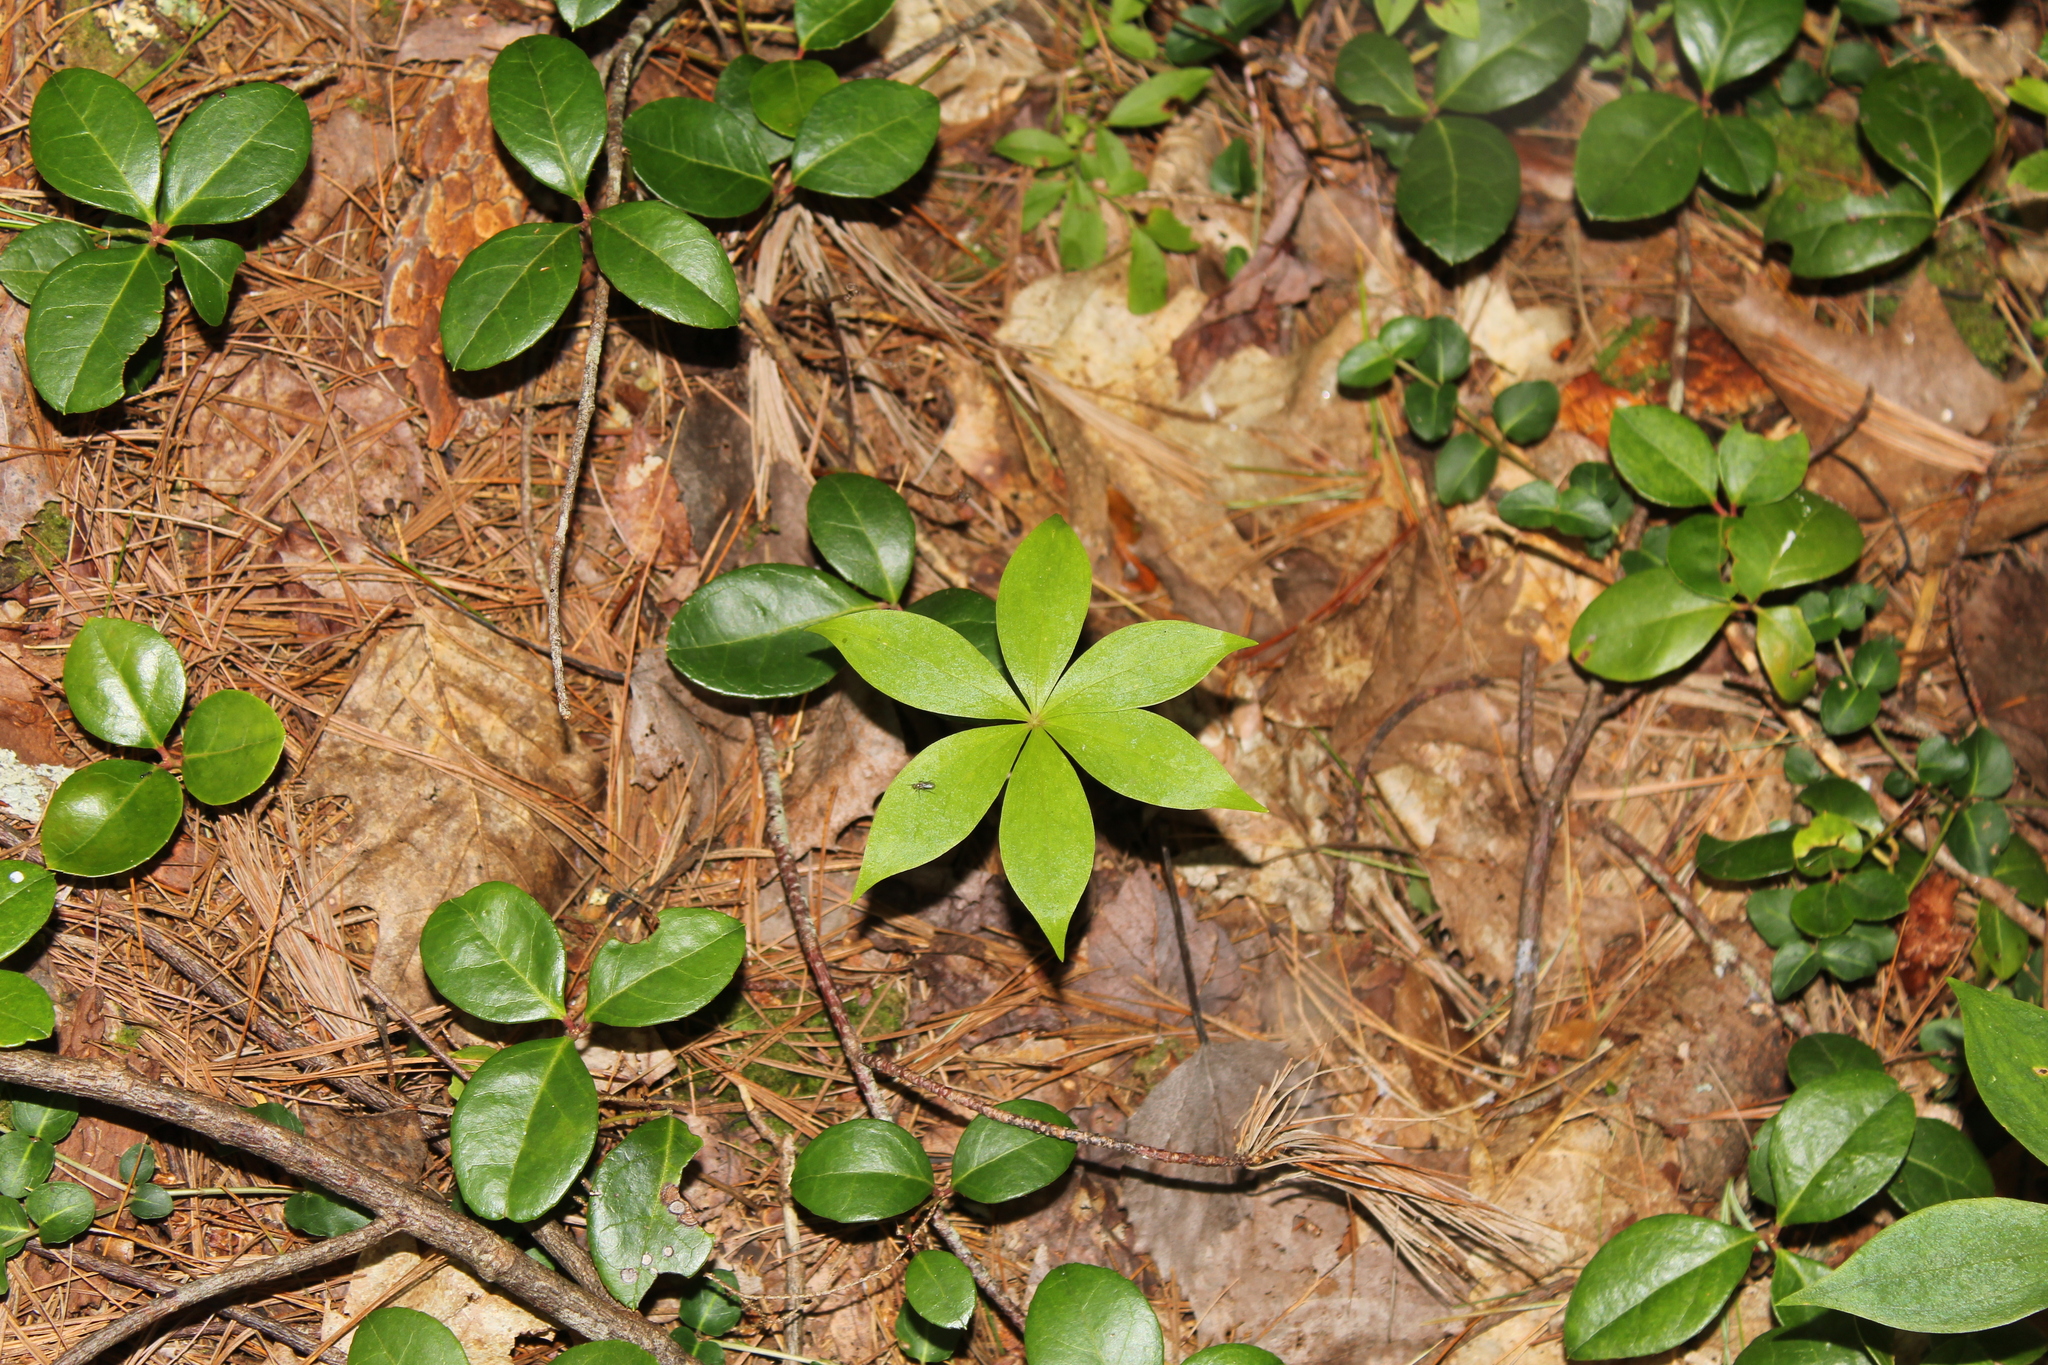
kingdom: Plantae
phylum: Tracheophyta
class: Magnoliopsida
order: Ericales
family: Primulaceae
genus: Lysimachia
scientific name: Lysimachia borealis
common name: American starflower
